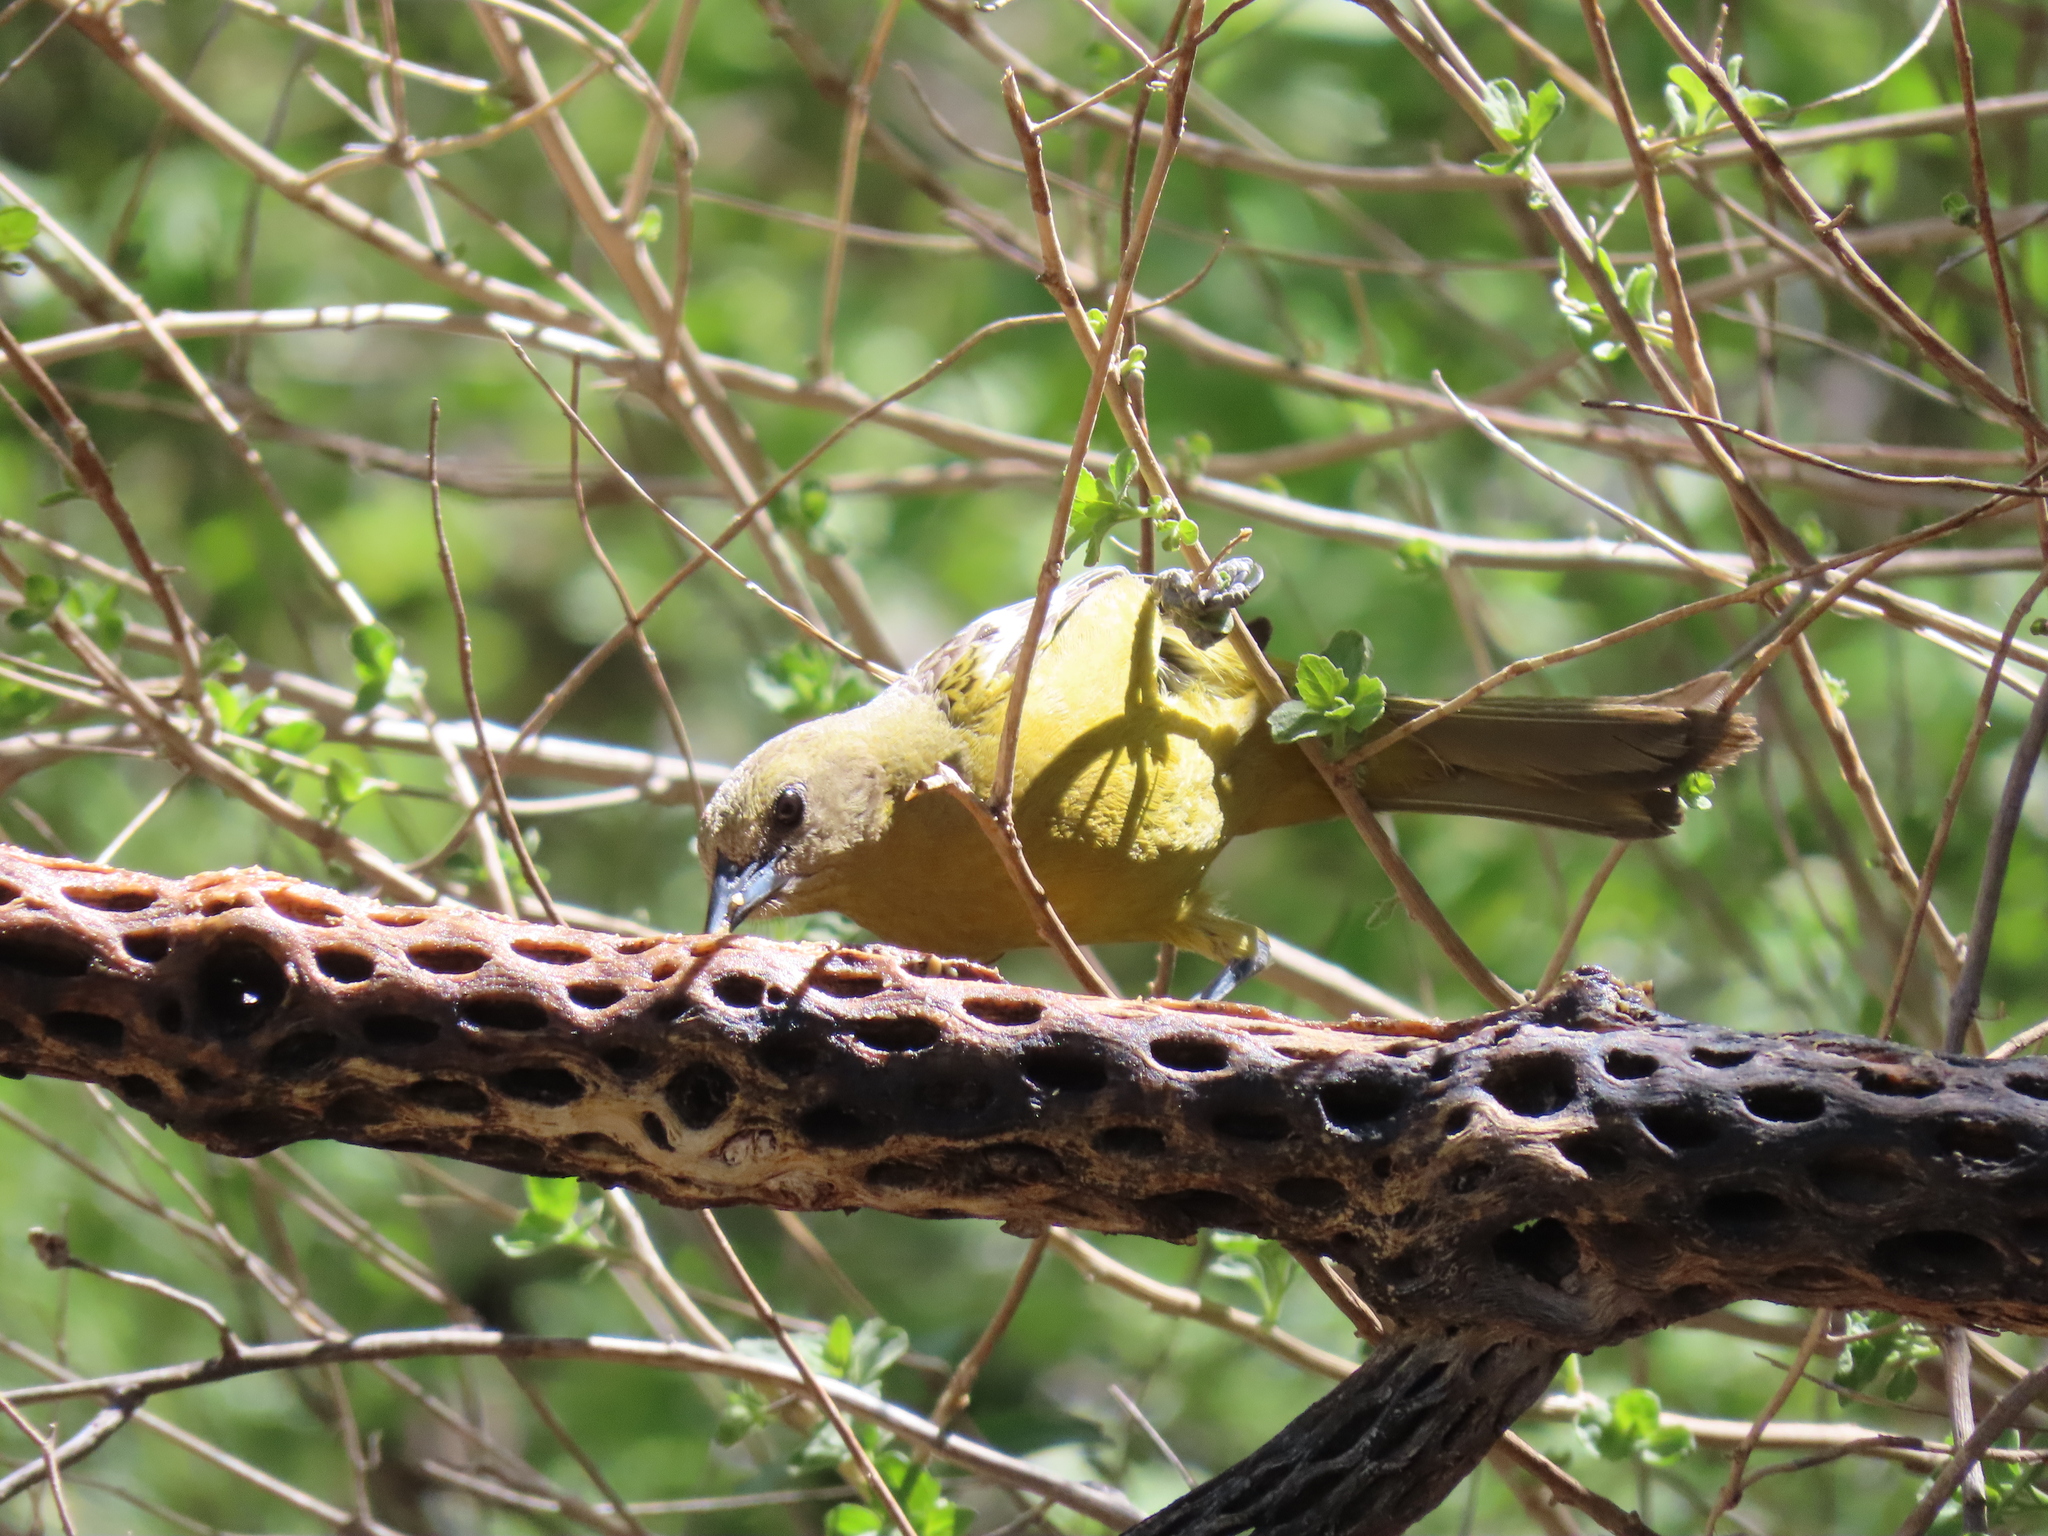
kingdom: Animalia
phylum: Chordata
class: Aves
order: Passeriformes
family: Icteridae
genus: Icterus
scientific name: Icterus parisorum
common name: Scott's oriole
